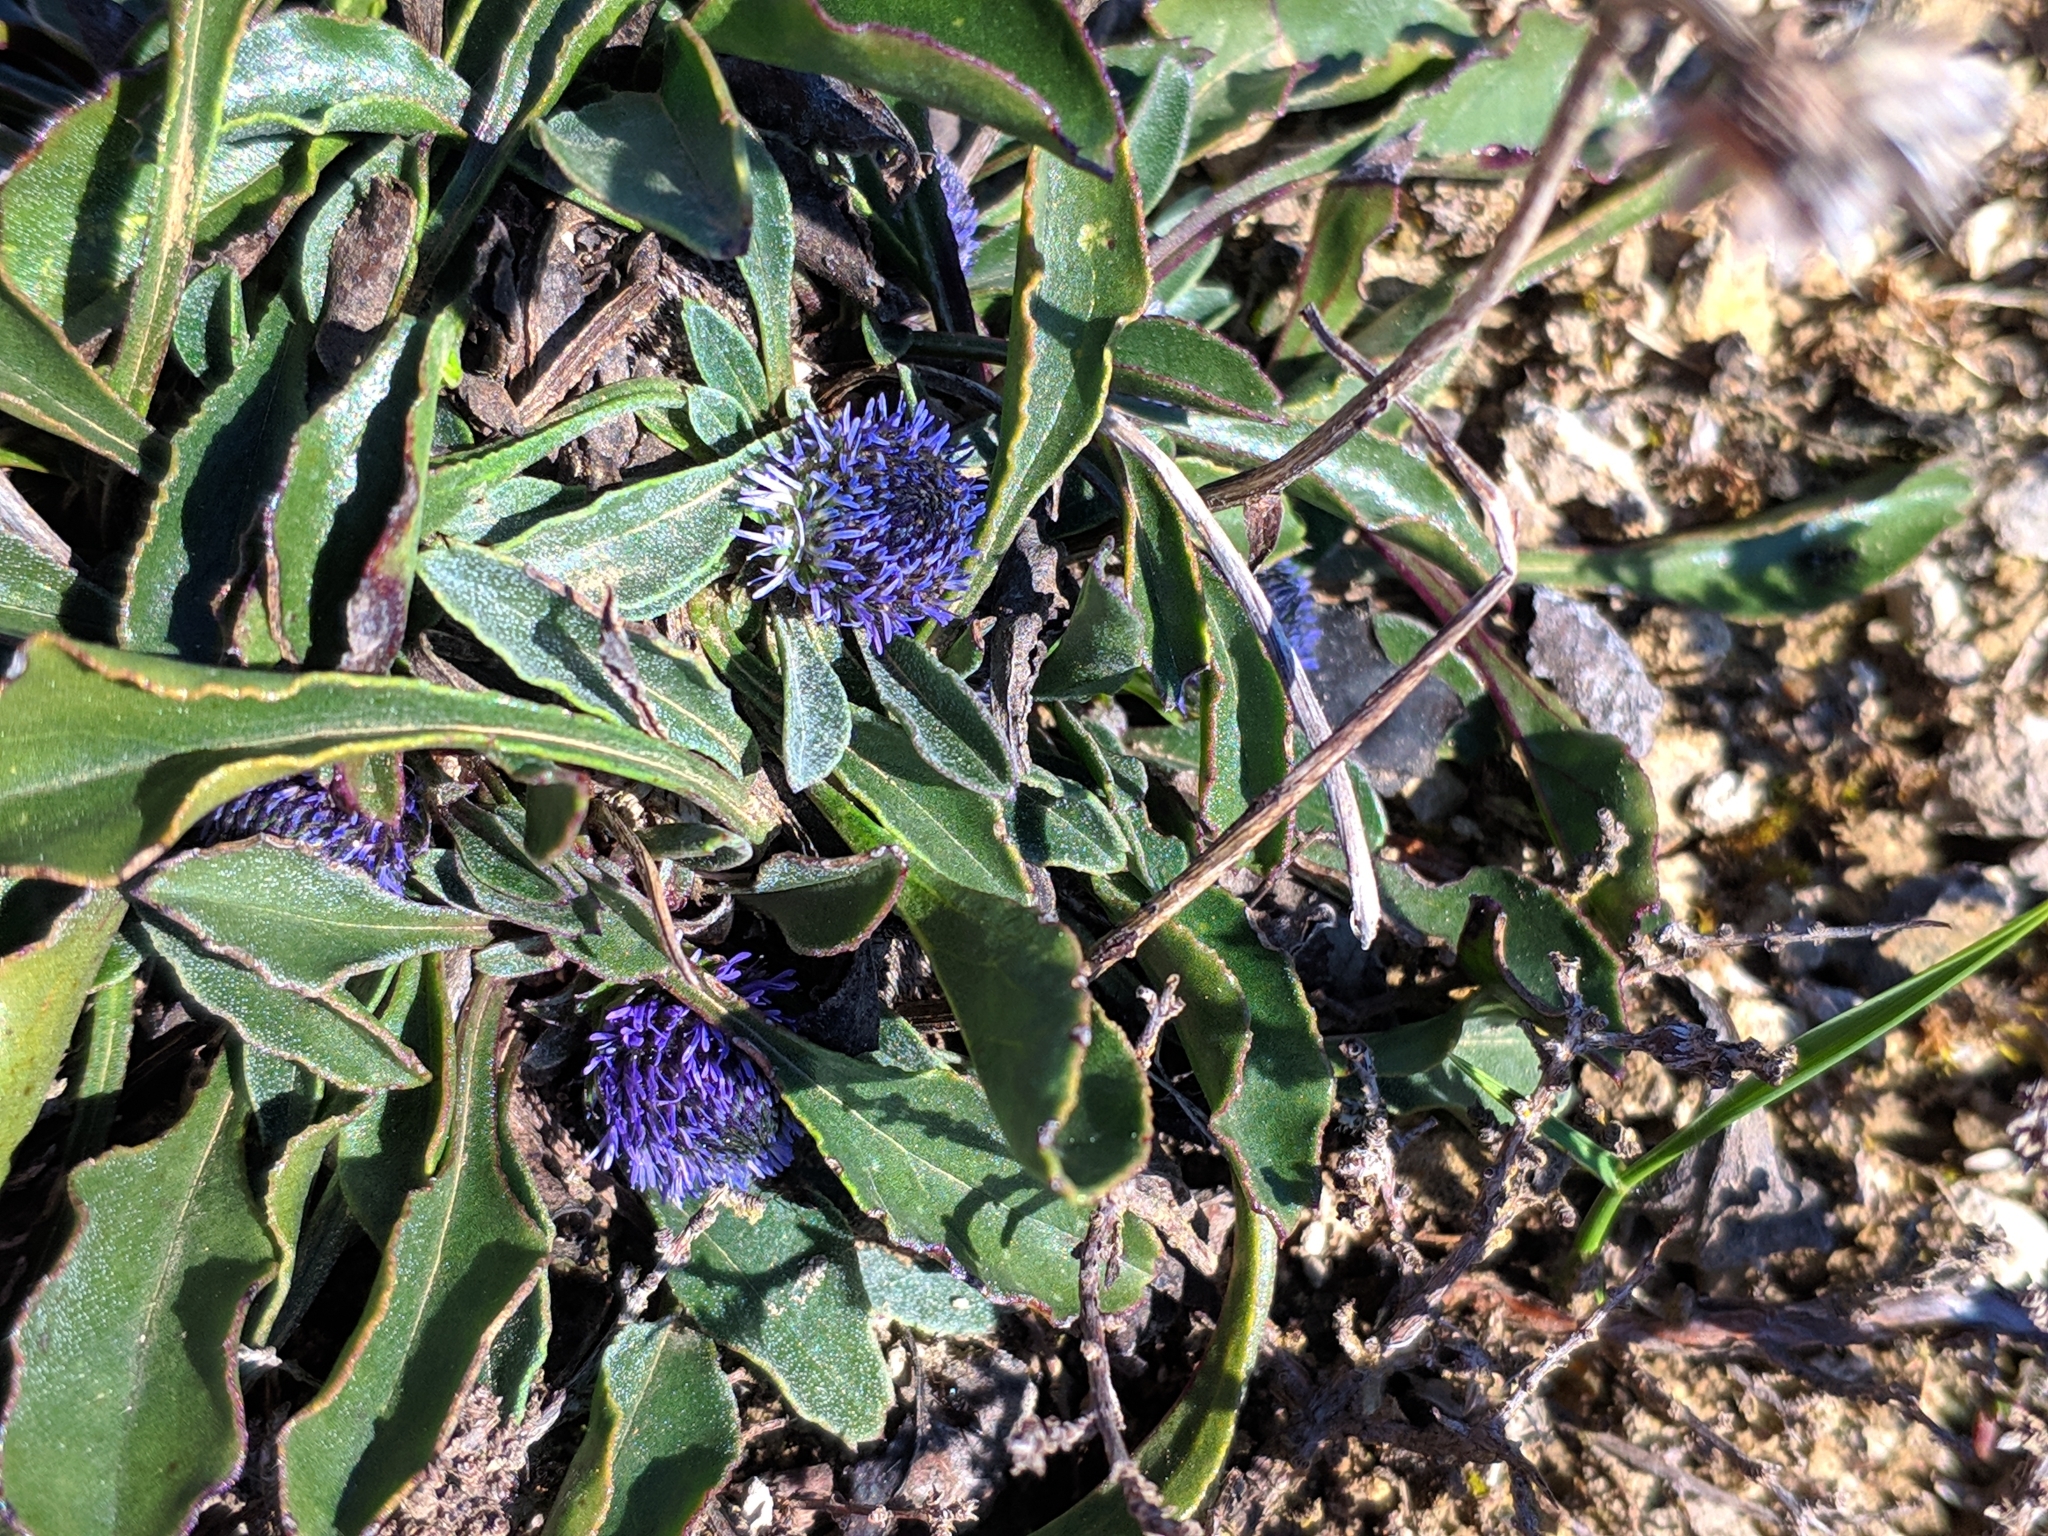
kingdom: Plantae
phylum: Tracheophyta
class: Magnoliopsida
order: Lamiales
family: Plantaginaceae
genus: Globularia
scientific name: Globularia vulgaris
